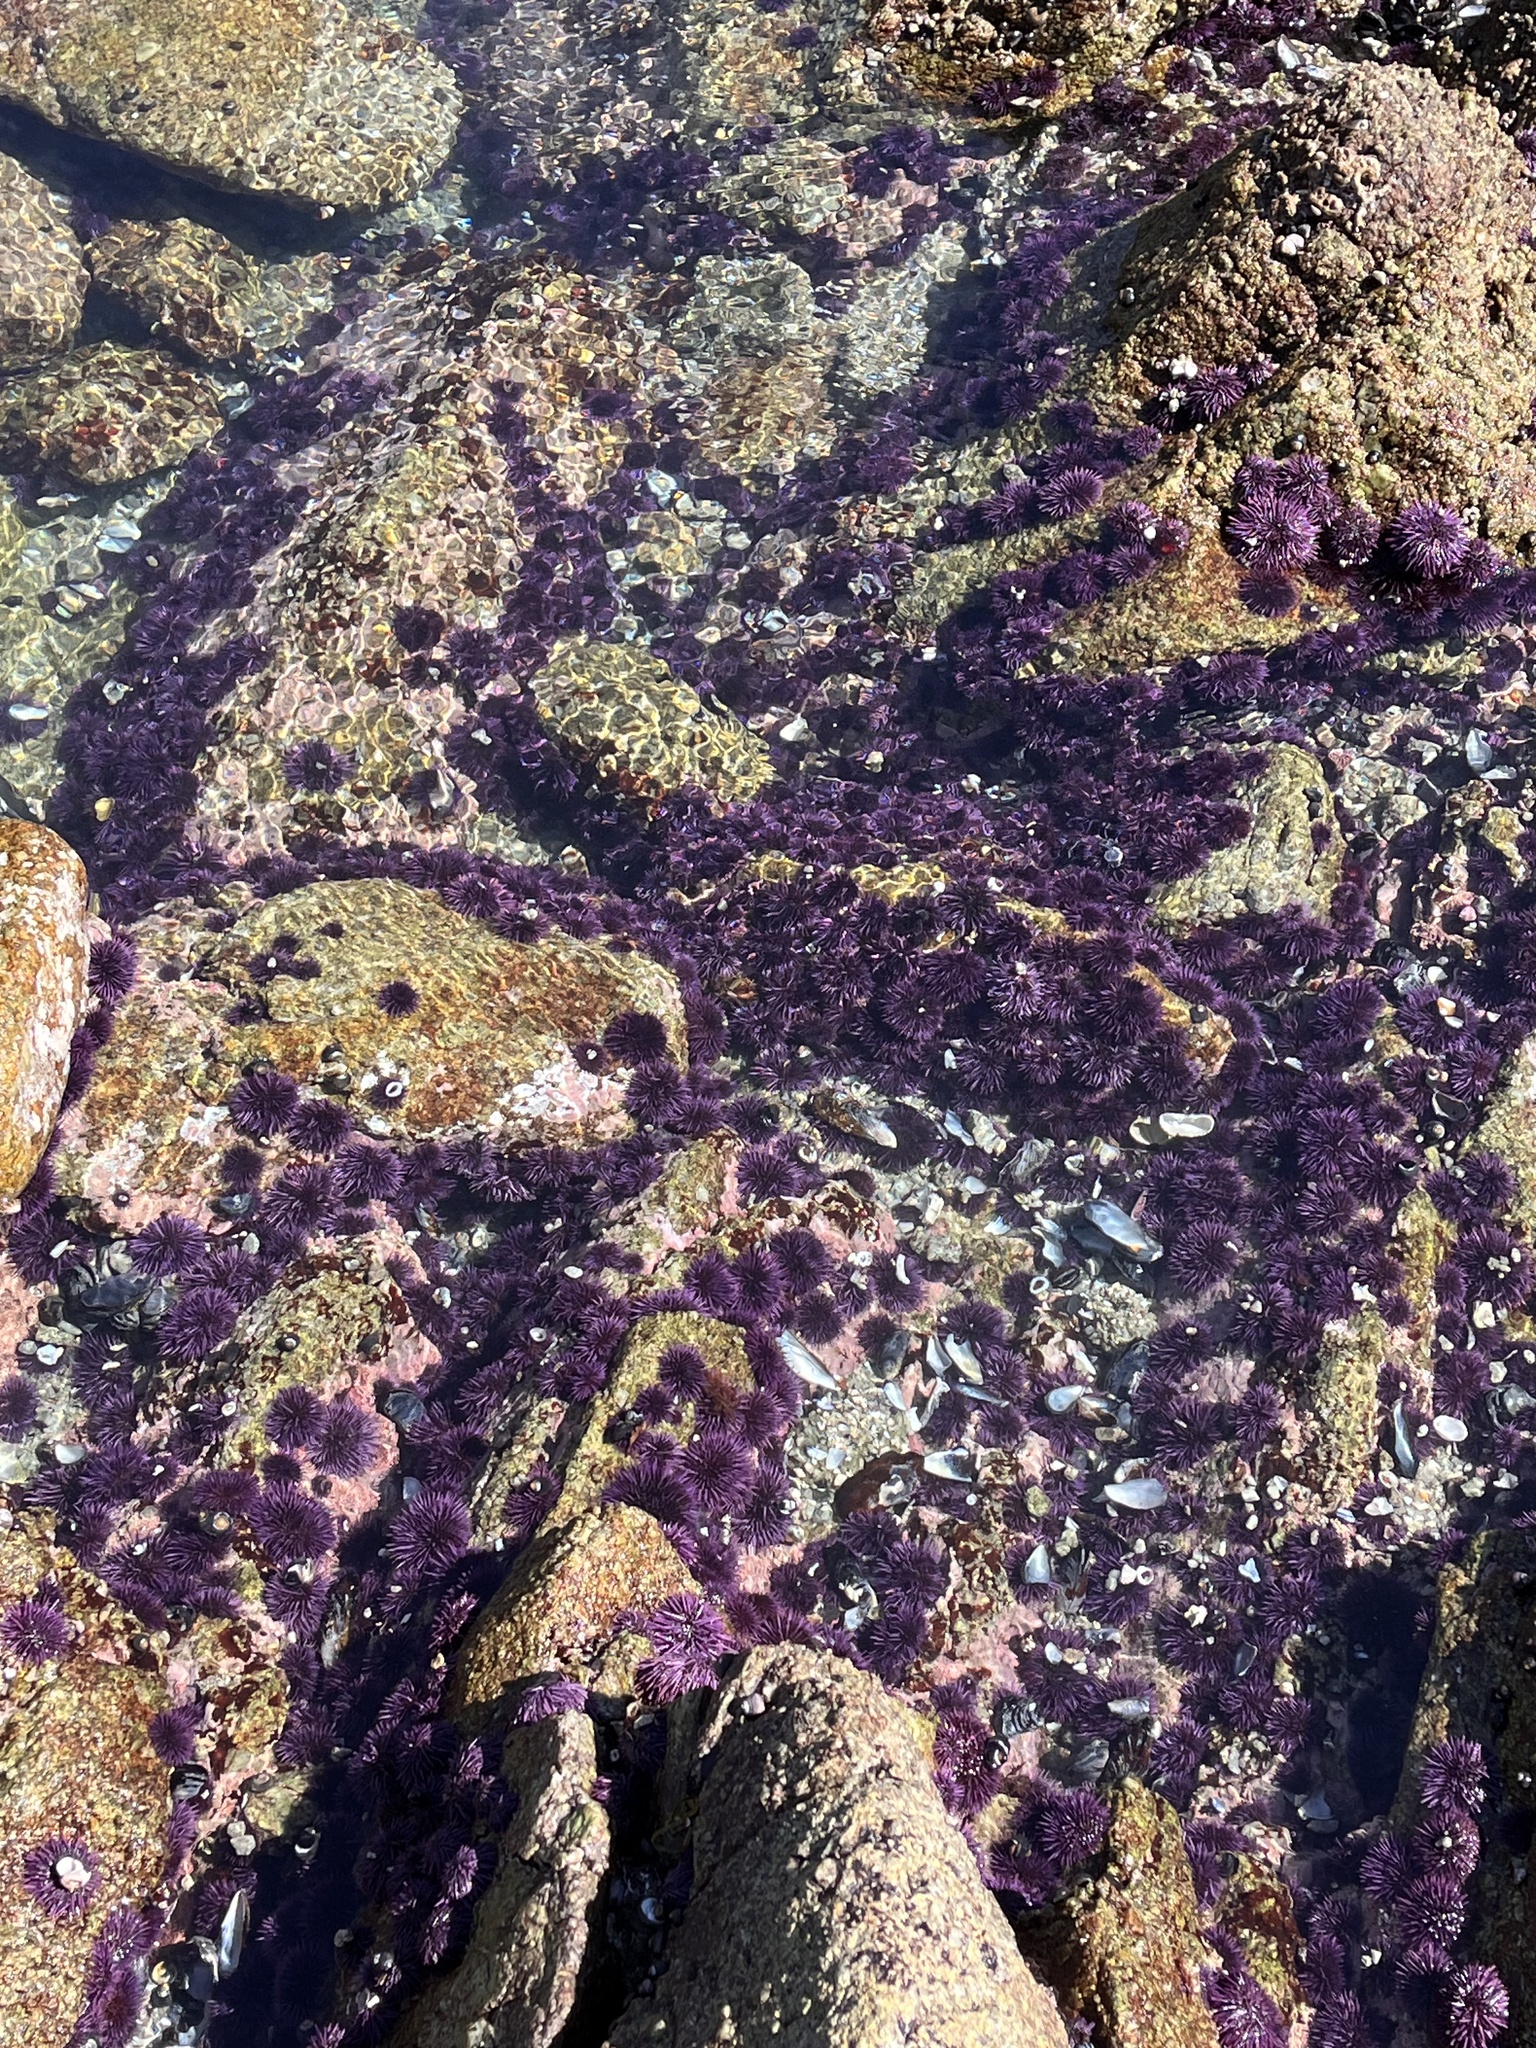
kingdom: Animalia
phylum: Echinodermata
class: Echinoidea
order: Camarodonta
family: Strongylocentrotidae
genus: Strongylocentrotus
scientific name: Strongylocentrotus purpuratus
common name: Purple sea urchin
